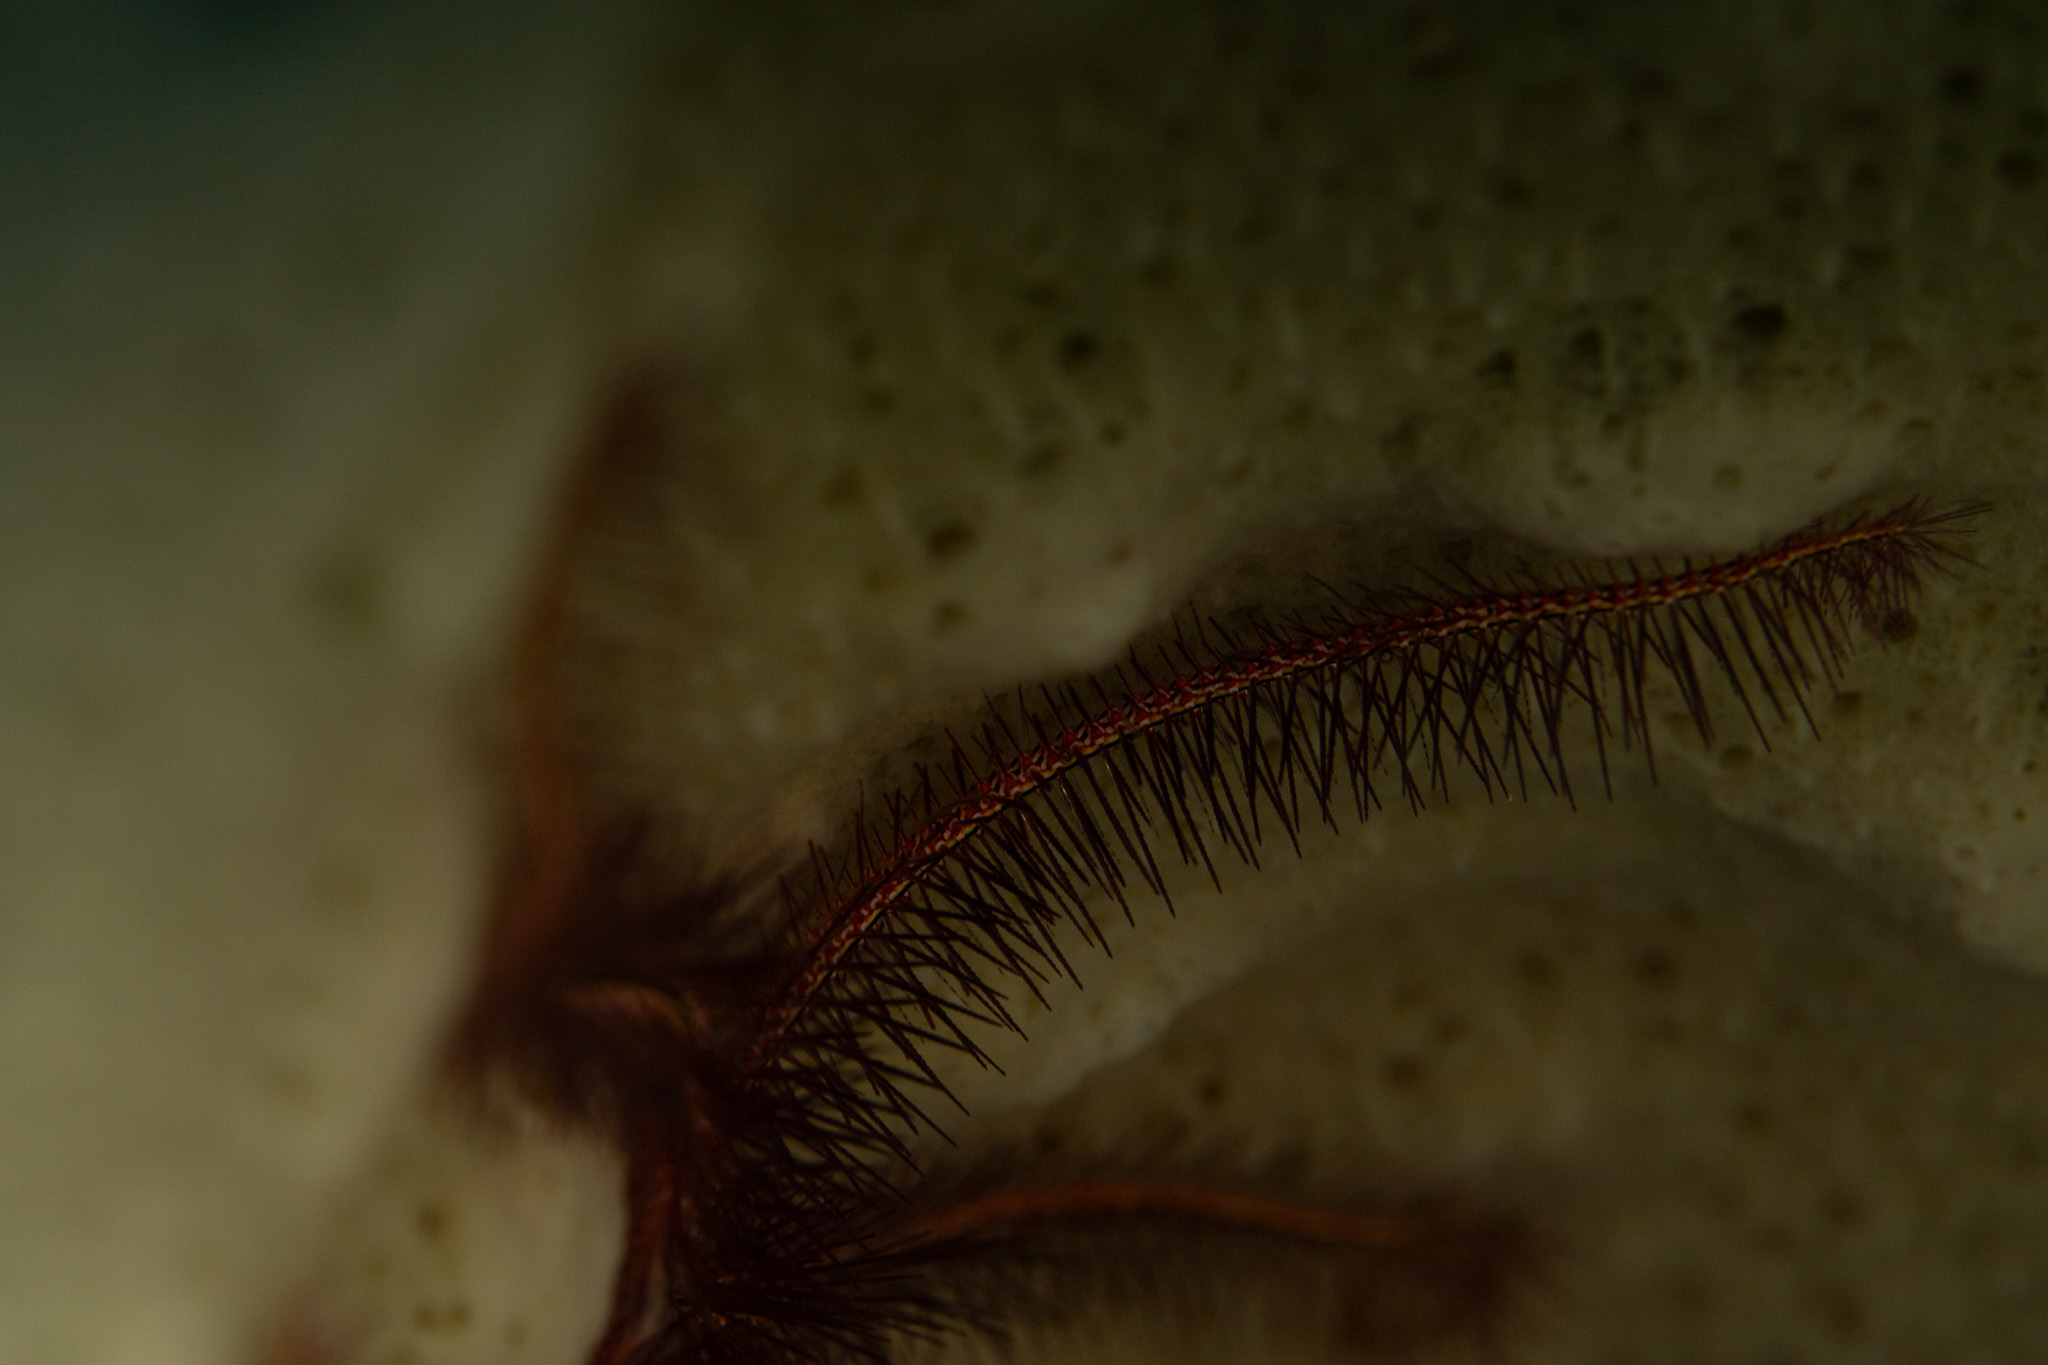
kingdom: Animalia
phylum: Echinodermata
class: Ophiuroidea
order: Amphilepidida
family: Ophiotrichidae
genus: Ophiothrix
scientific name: Ophiothrix suensonii
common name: Sponge brittle star
